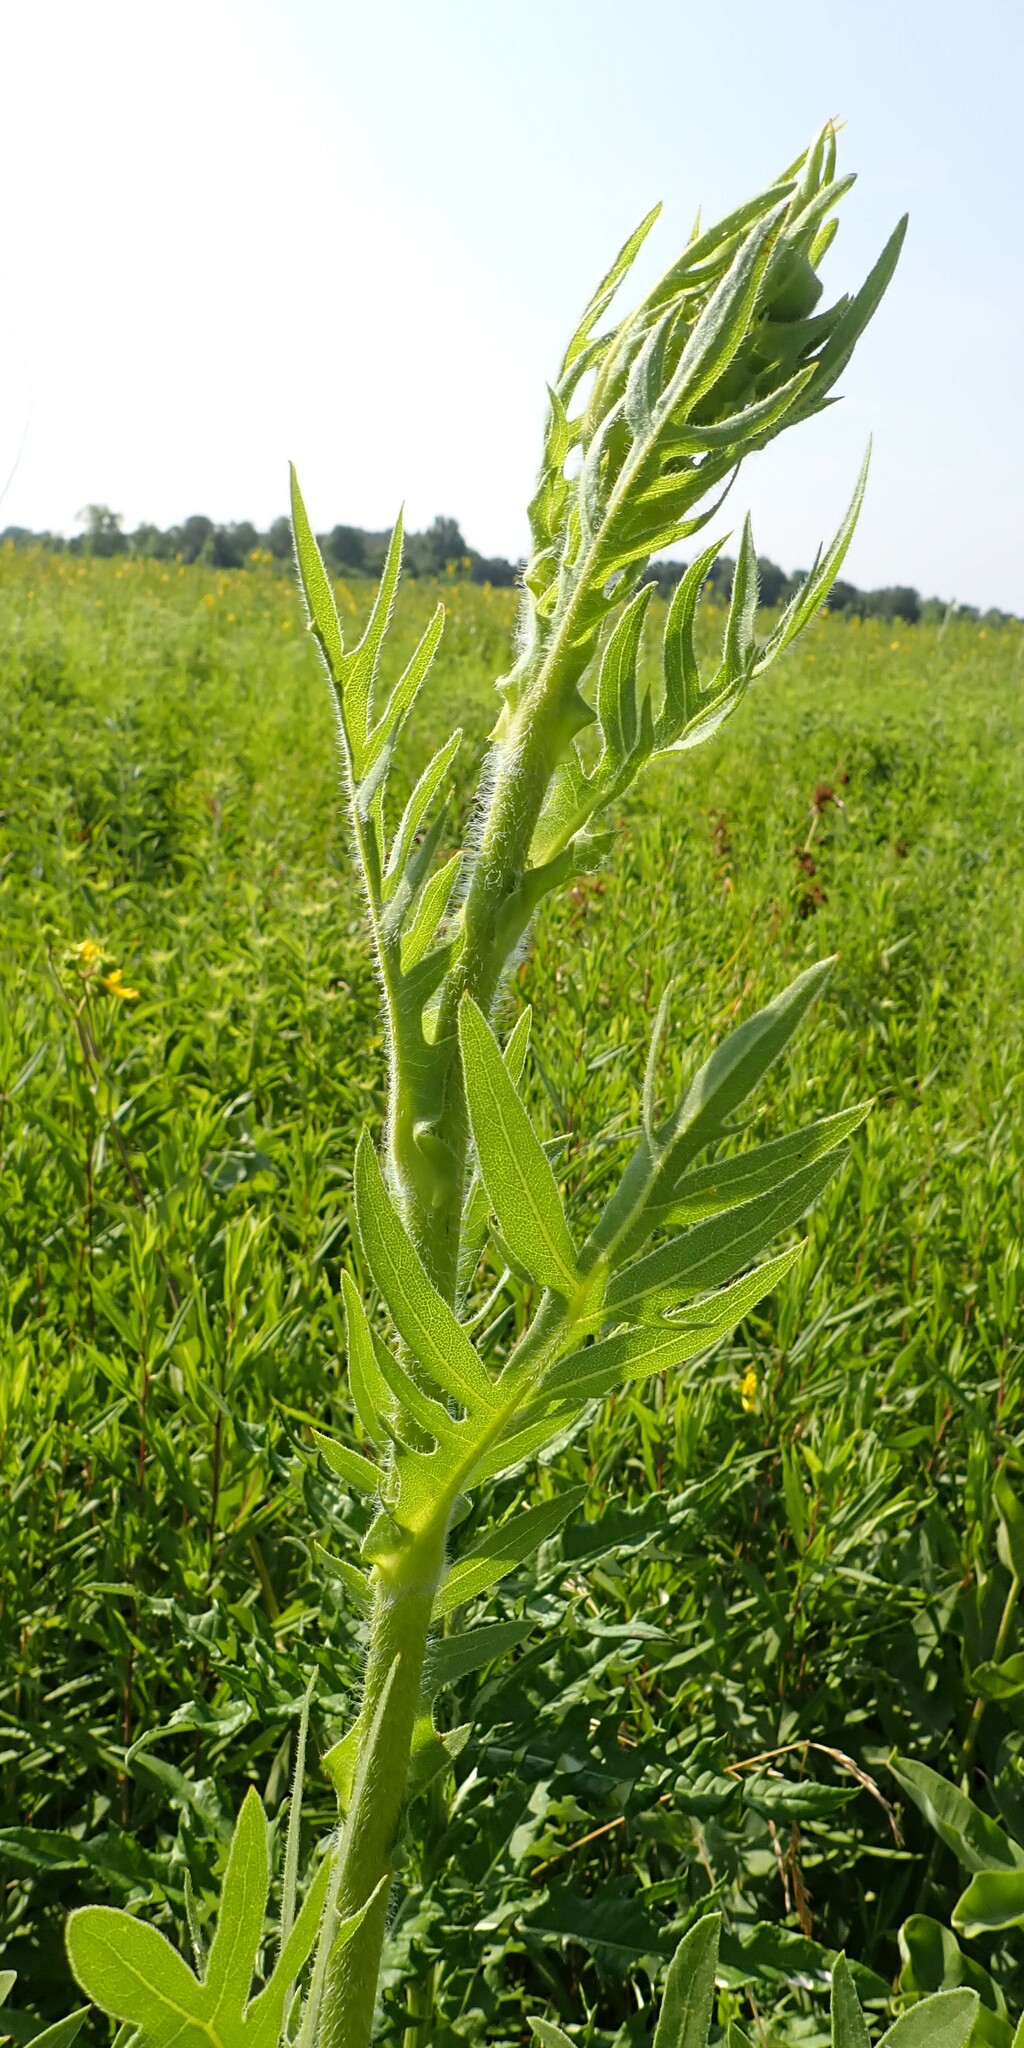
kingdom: Plantae
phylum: Tracheophyta
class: Magnoliopsida
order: Asterales
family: Asteraceae
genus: Silphium
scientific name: Silphium laciniatum
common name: Polarplant
